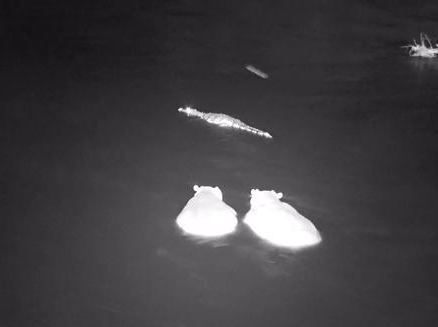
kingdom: Animalia
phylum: Chordata
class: Crocodylia
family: Crocodylidae
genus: Crocodylus
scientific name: Crocodylus niloticus
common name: Nile crocodile
